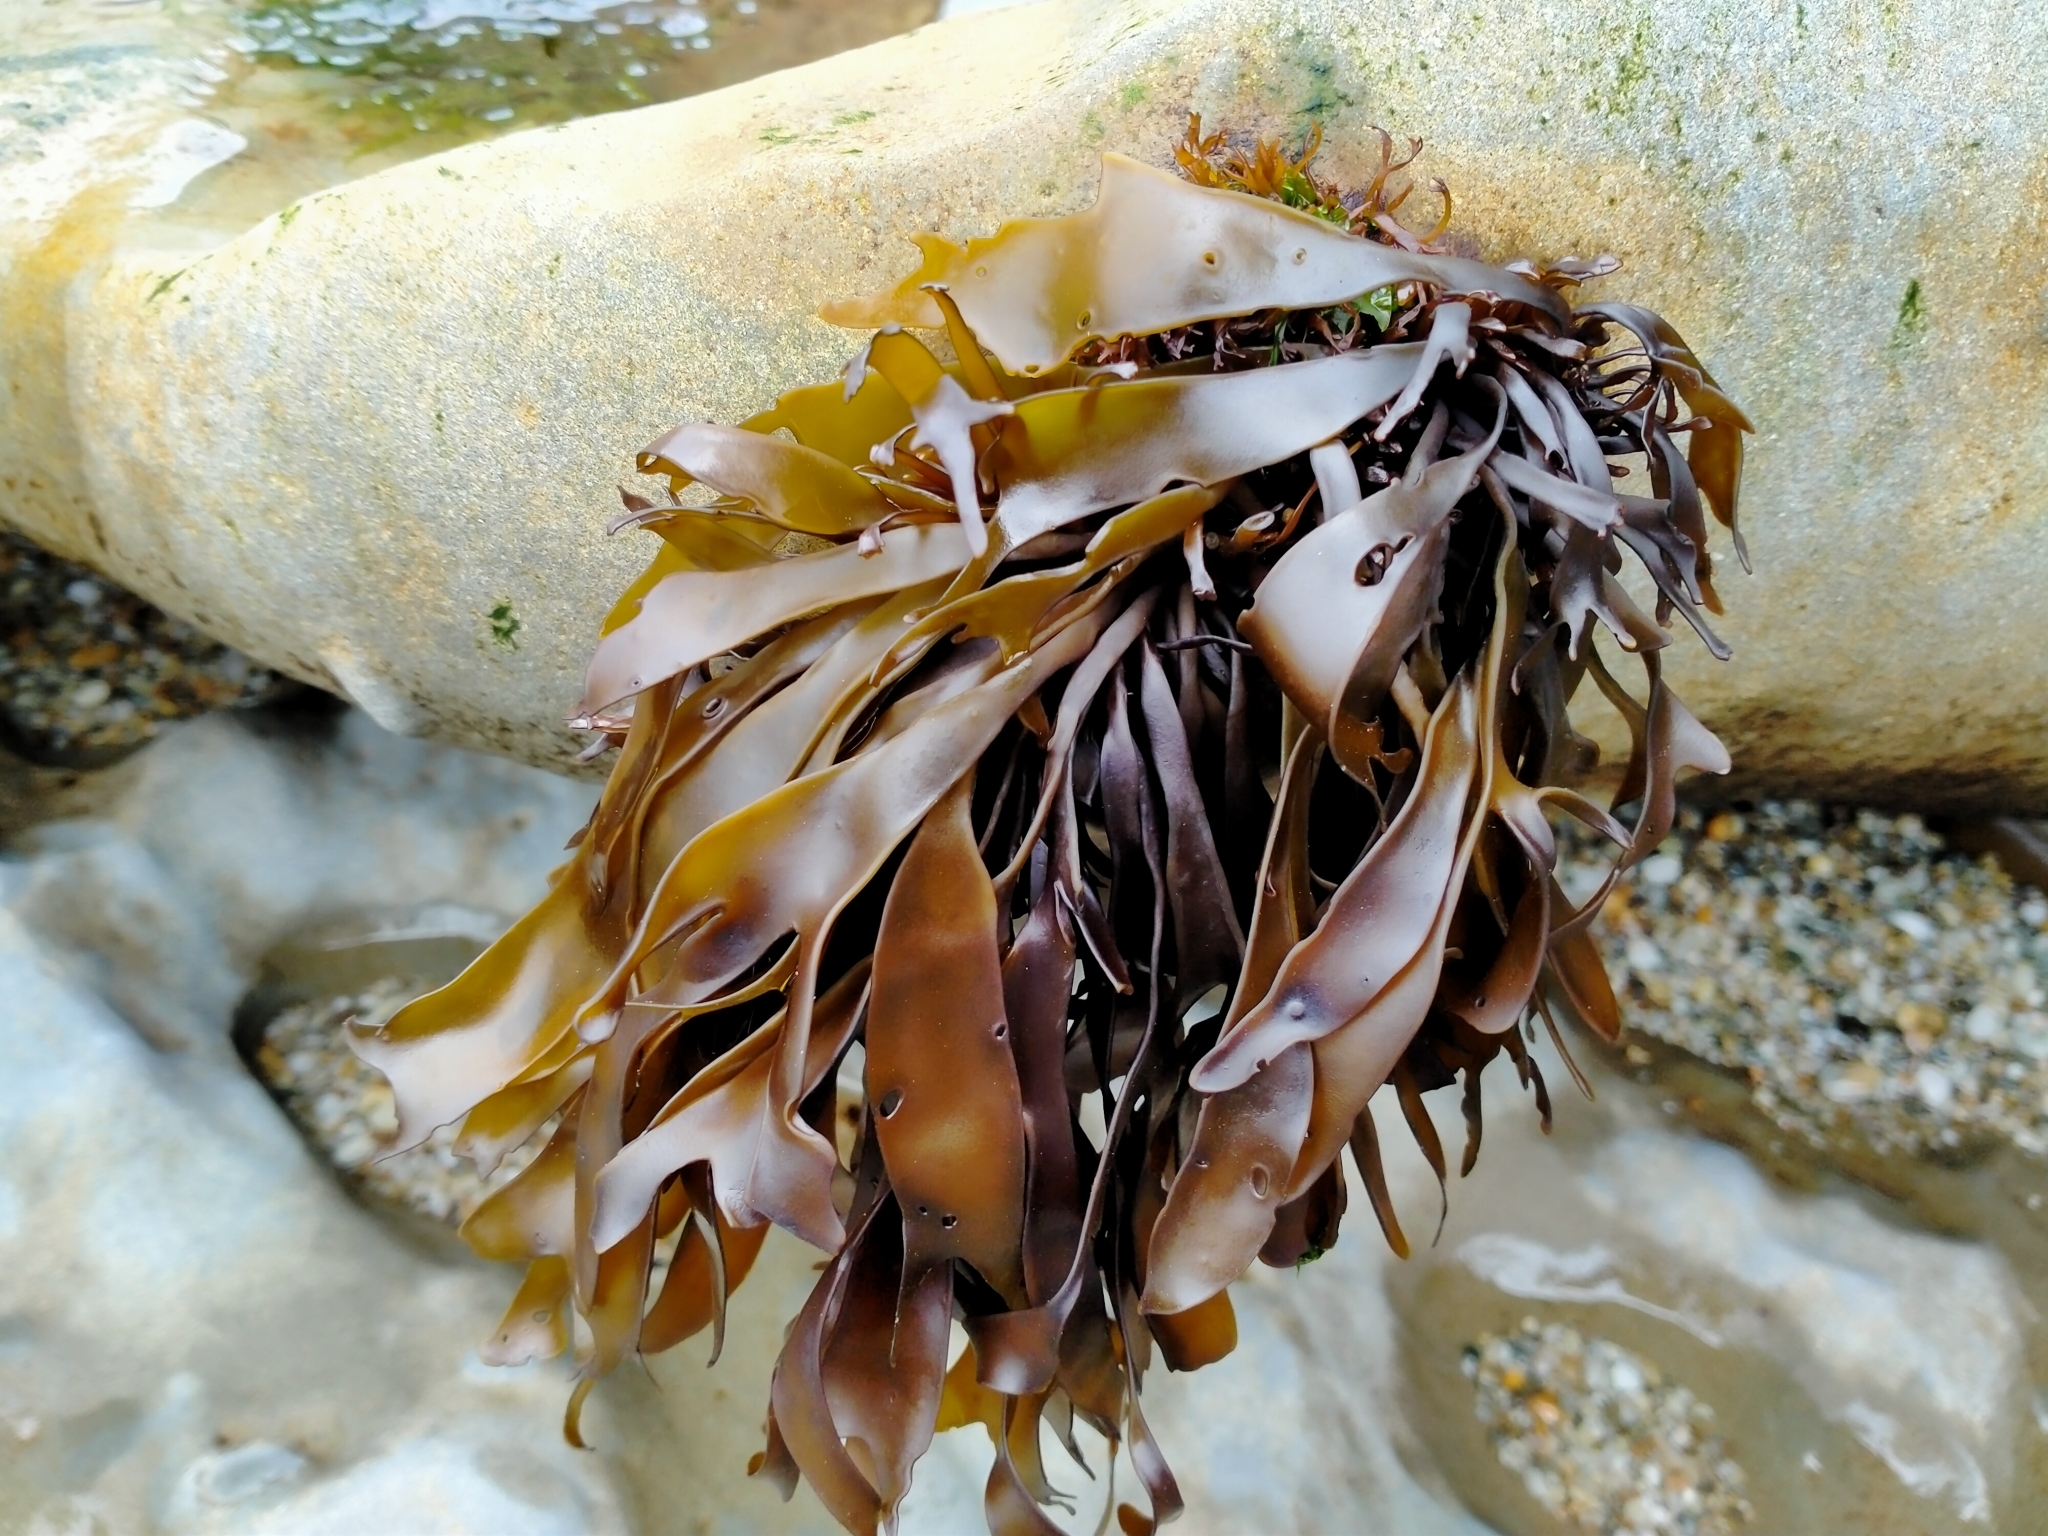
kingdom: Plantae
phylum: Rhodophyta
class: Florideophyceae
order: Halymeniales
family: Halymeniaceae
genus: Pachymenia
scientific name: Pachymenia dichotoma
